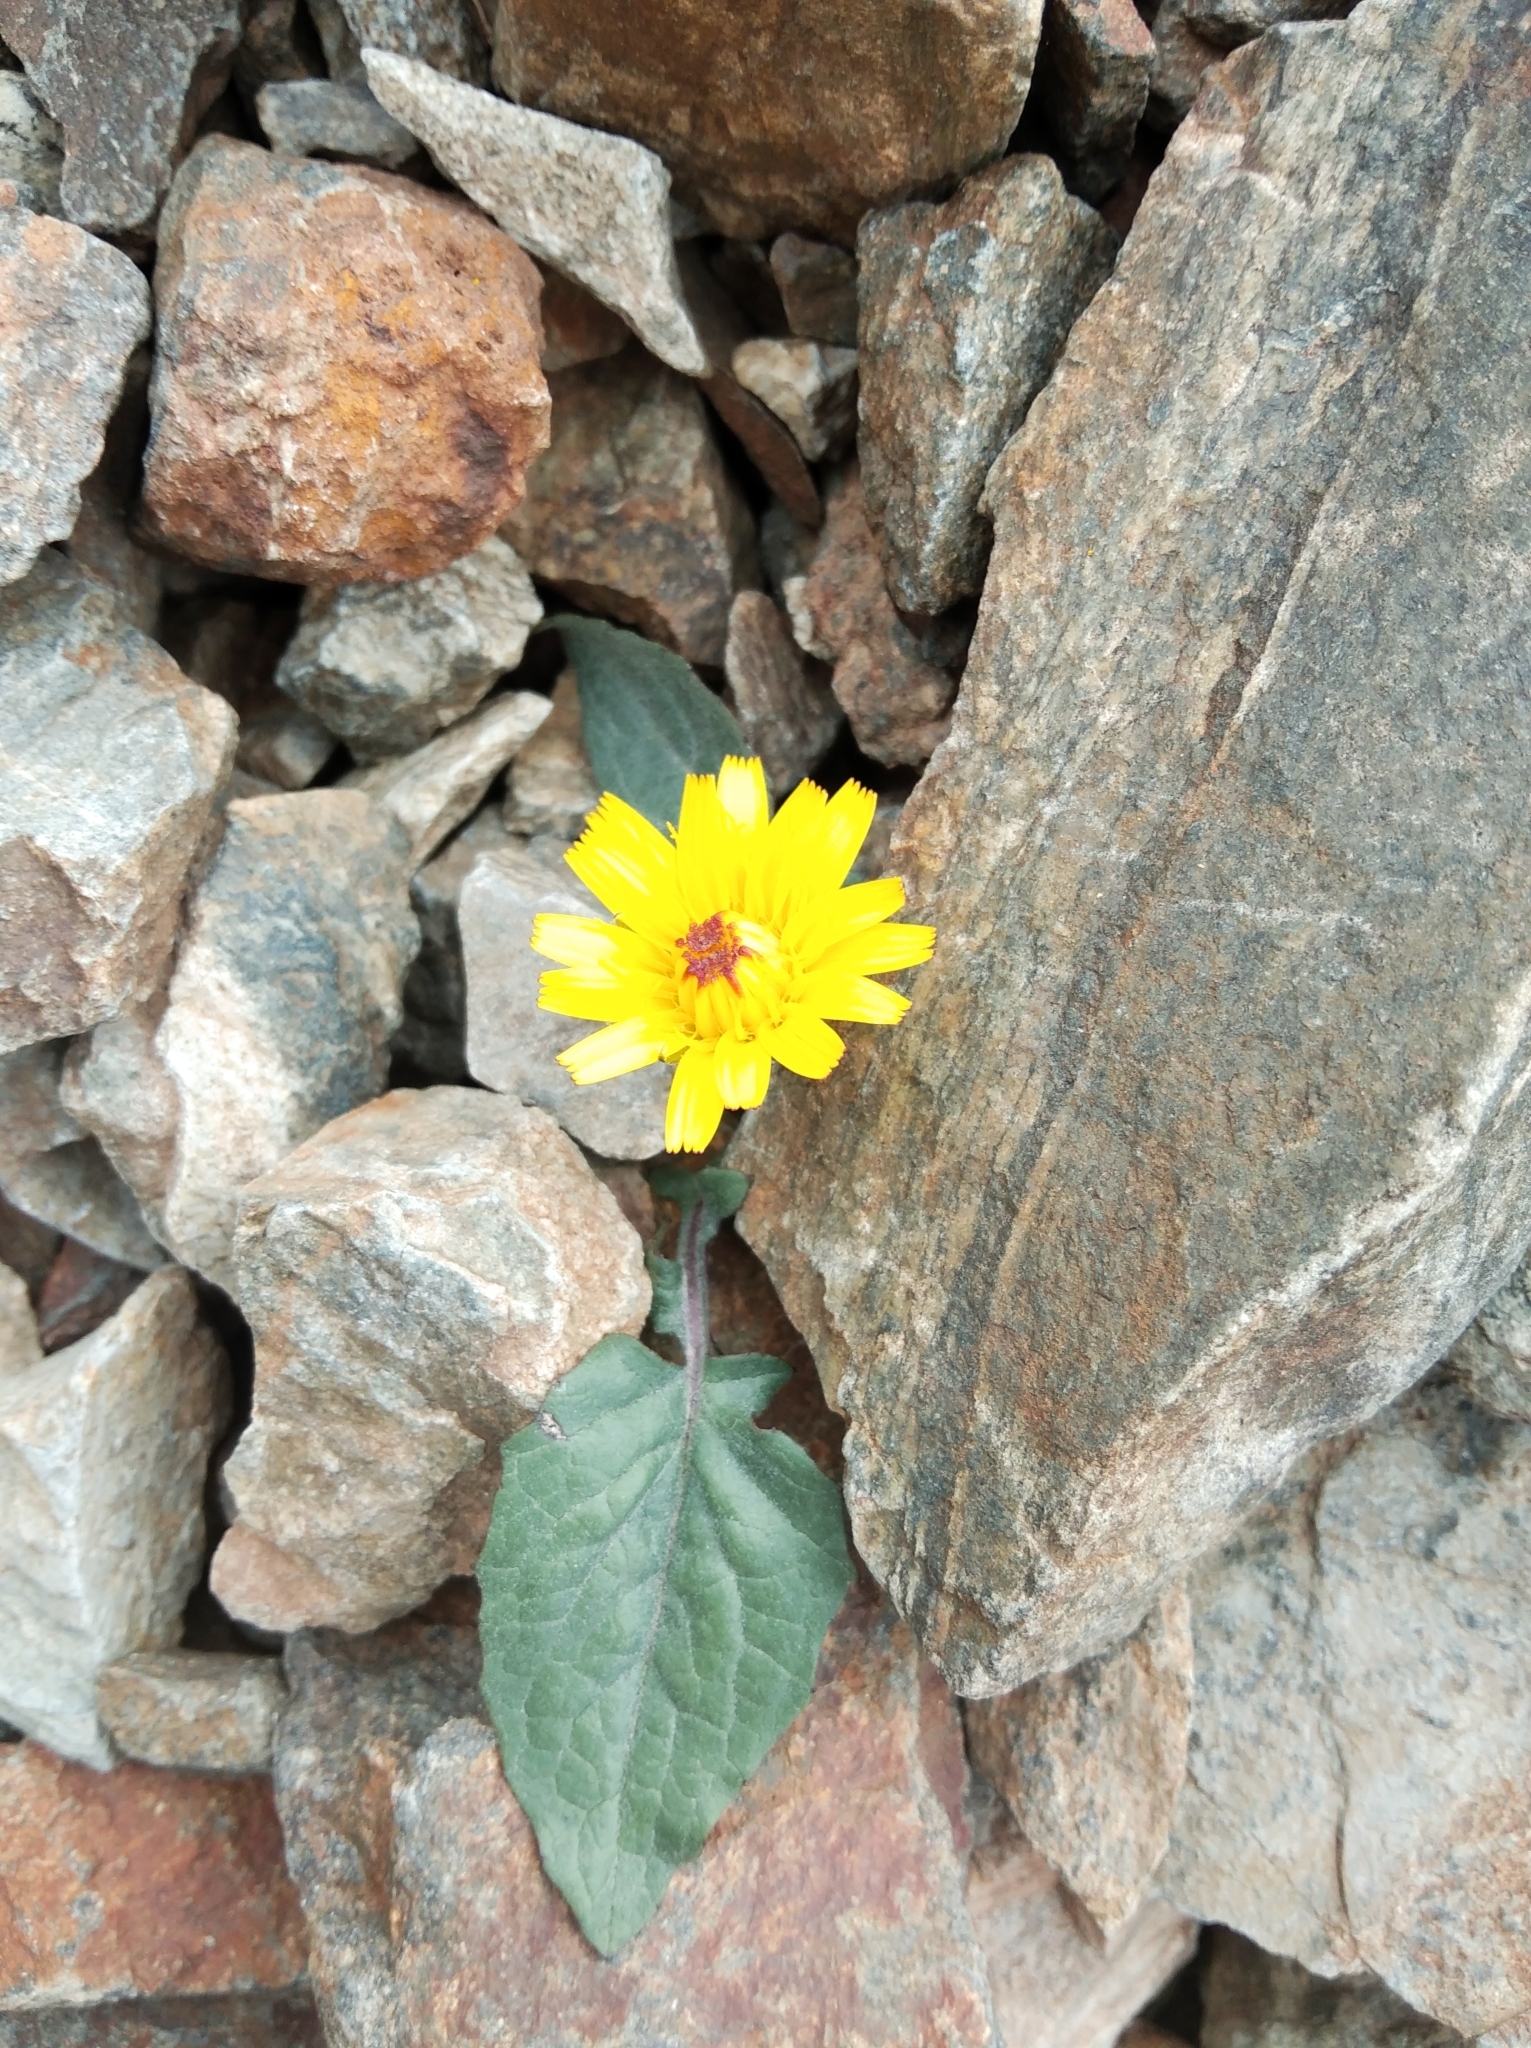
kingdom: Plantae
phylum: Tracheophyta
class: Magnoliopsida
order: Asterales
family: Asteraceae
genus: Crepis
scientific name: Crepis pygmaea
